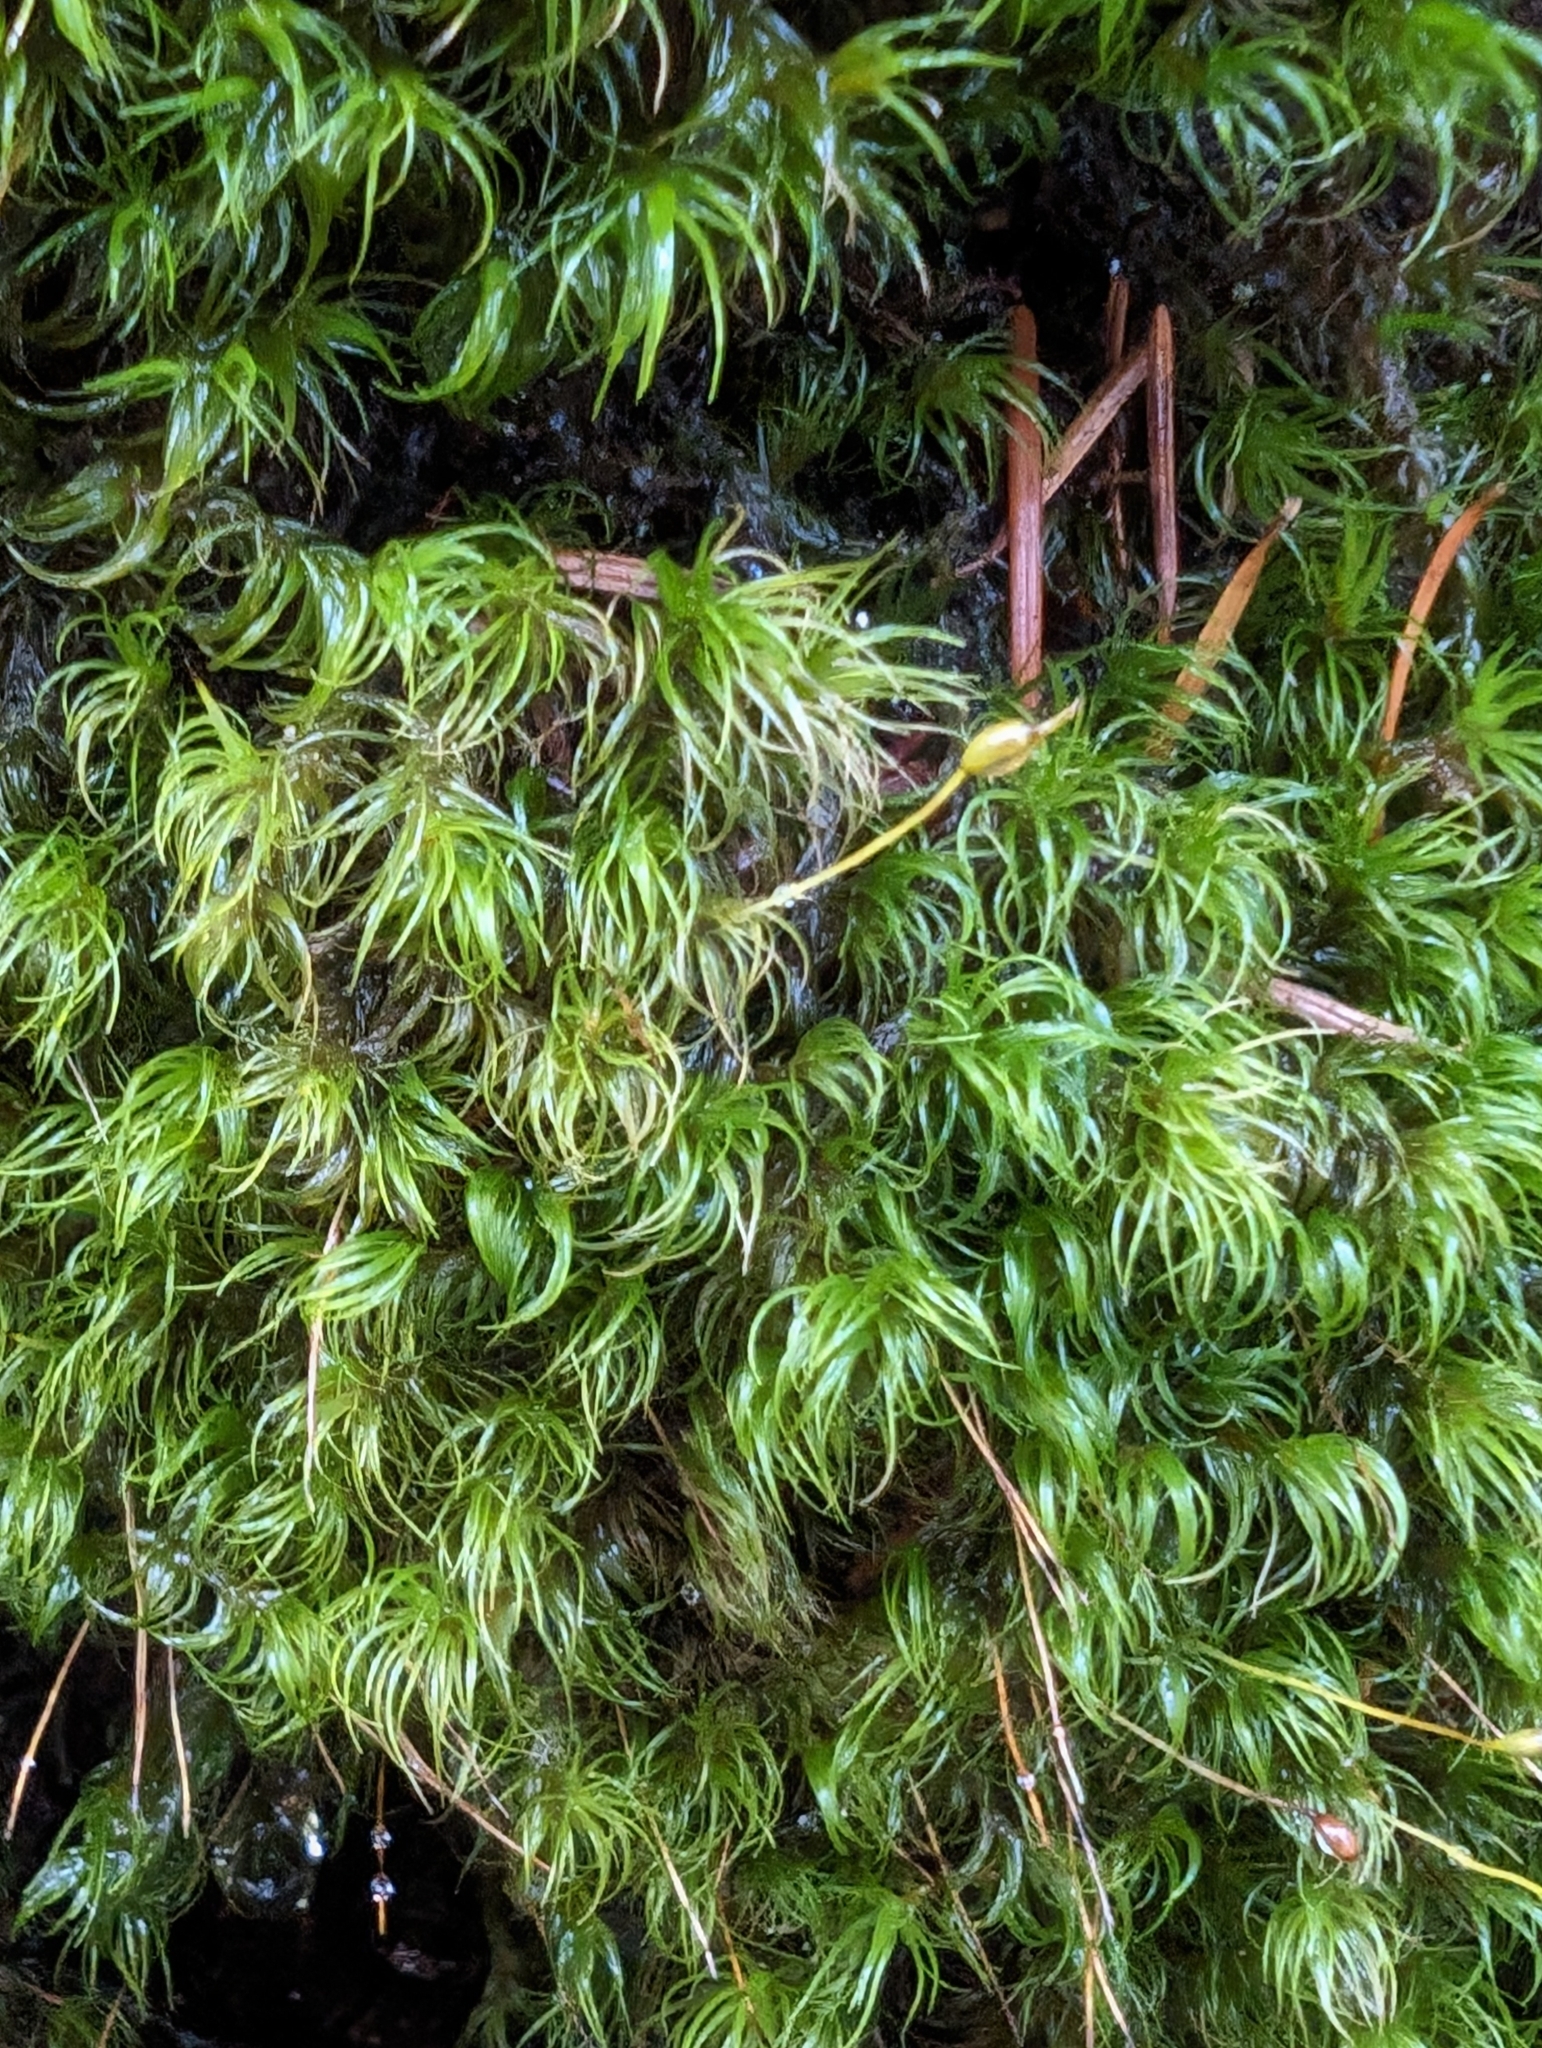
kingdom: Plantae
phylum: Bryophyta
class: Bryopsida
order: Dicranales
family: Dicranaceae
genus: Dicranum
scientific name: Dicranum fuscescens
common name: Curly heron's-bill moss
